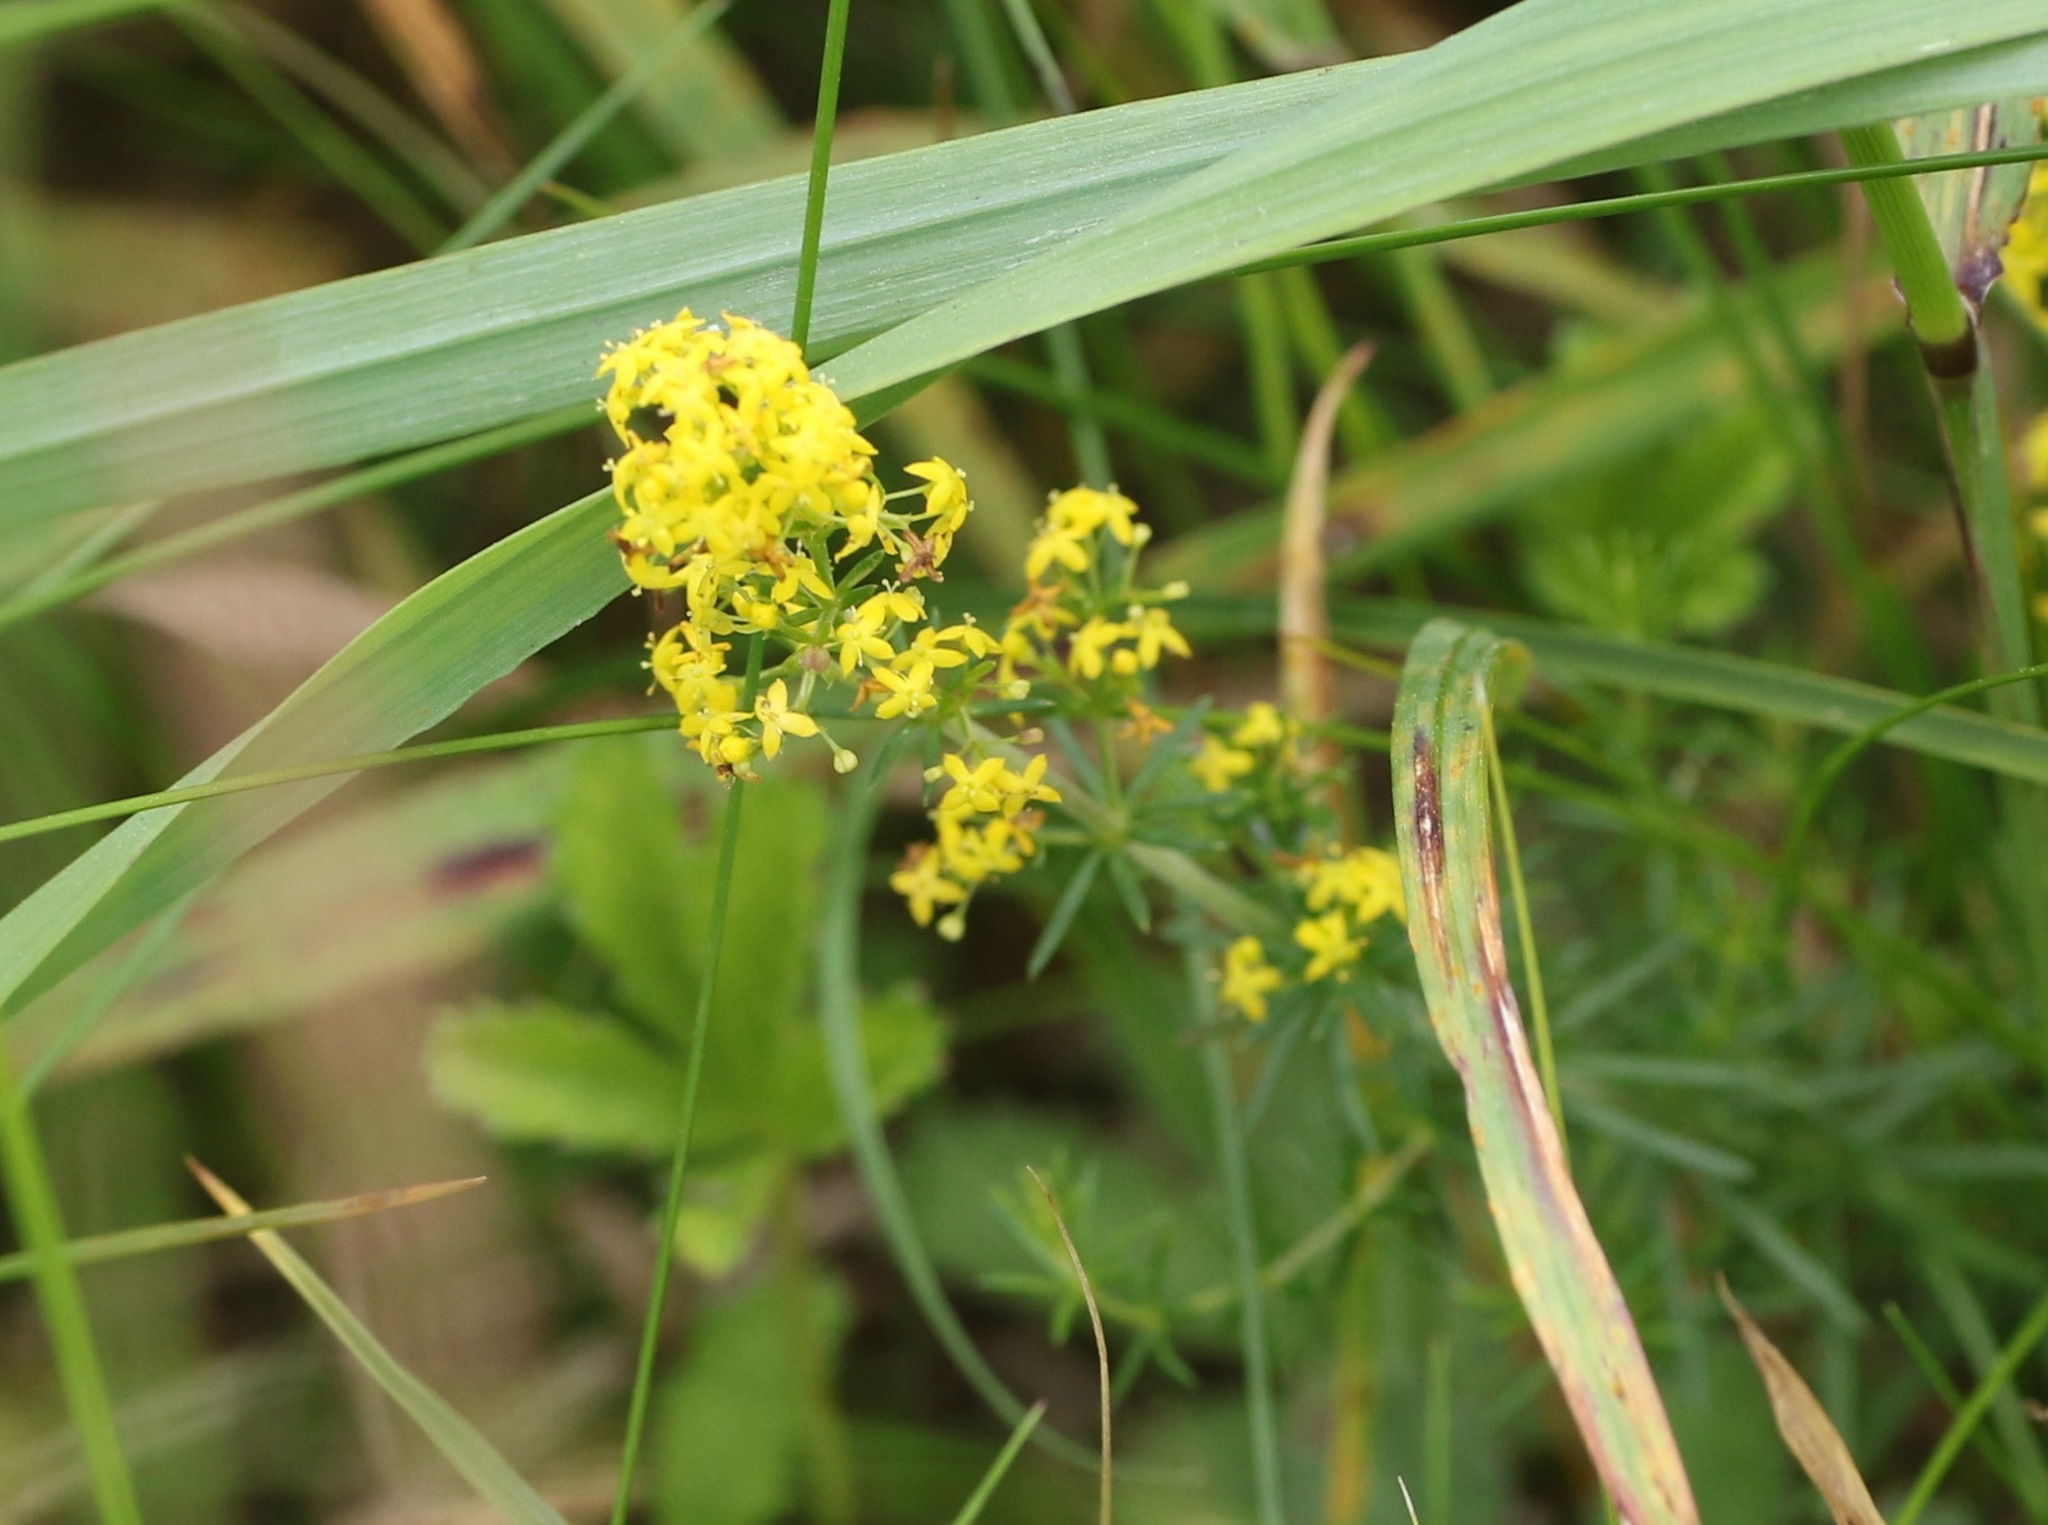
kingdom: Plantae
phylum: Tracheophyta
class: Magnoliopsida
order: Gentianales
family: Rubiaceae
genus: Galium
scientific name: Galium verum
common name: Lady's bedstraw
